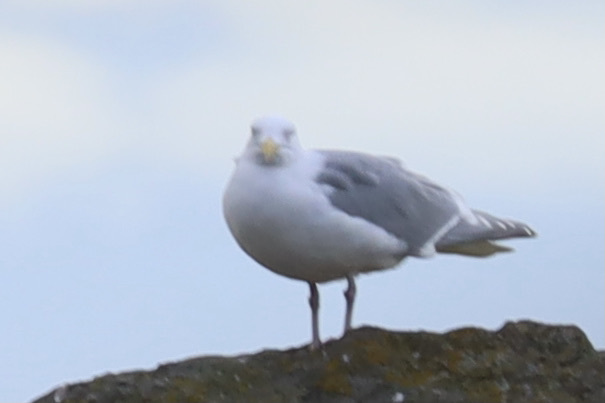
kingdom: Animalia
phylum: Chordata
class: Aves
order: Charadriiformes
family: Laridae
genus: Larus
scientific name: Larus glaucescens
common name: Glaucous-winged gull
